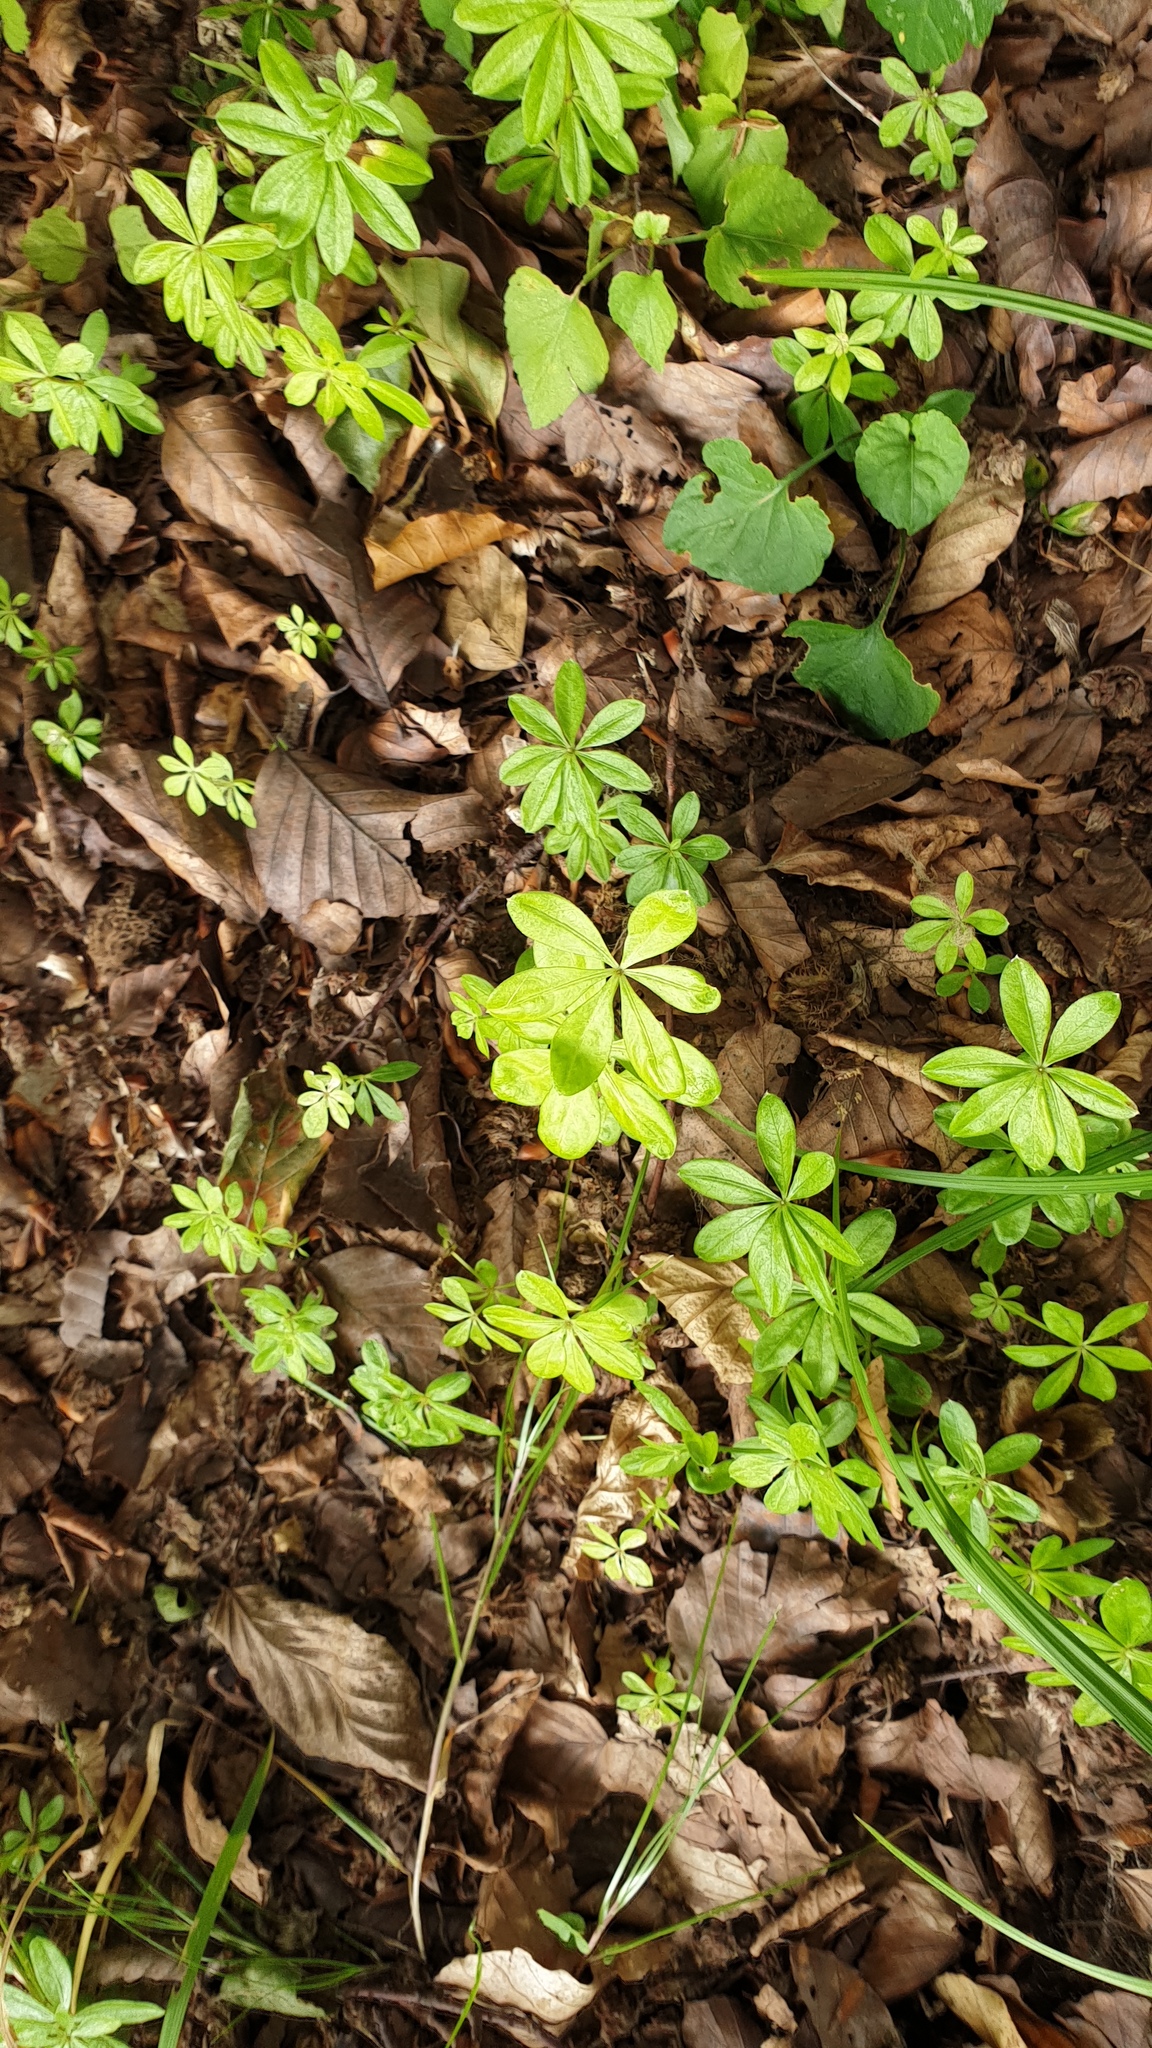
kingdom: Plantae
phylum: Tracheophyta
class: Magnoliopsida
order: Gentianales
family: Rubiaceae
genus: Galium
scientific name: Galium odoratum
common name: Sweet woodruff
